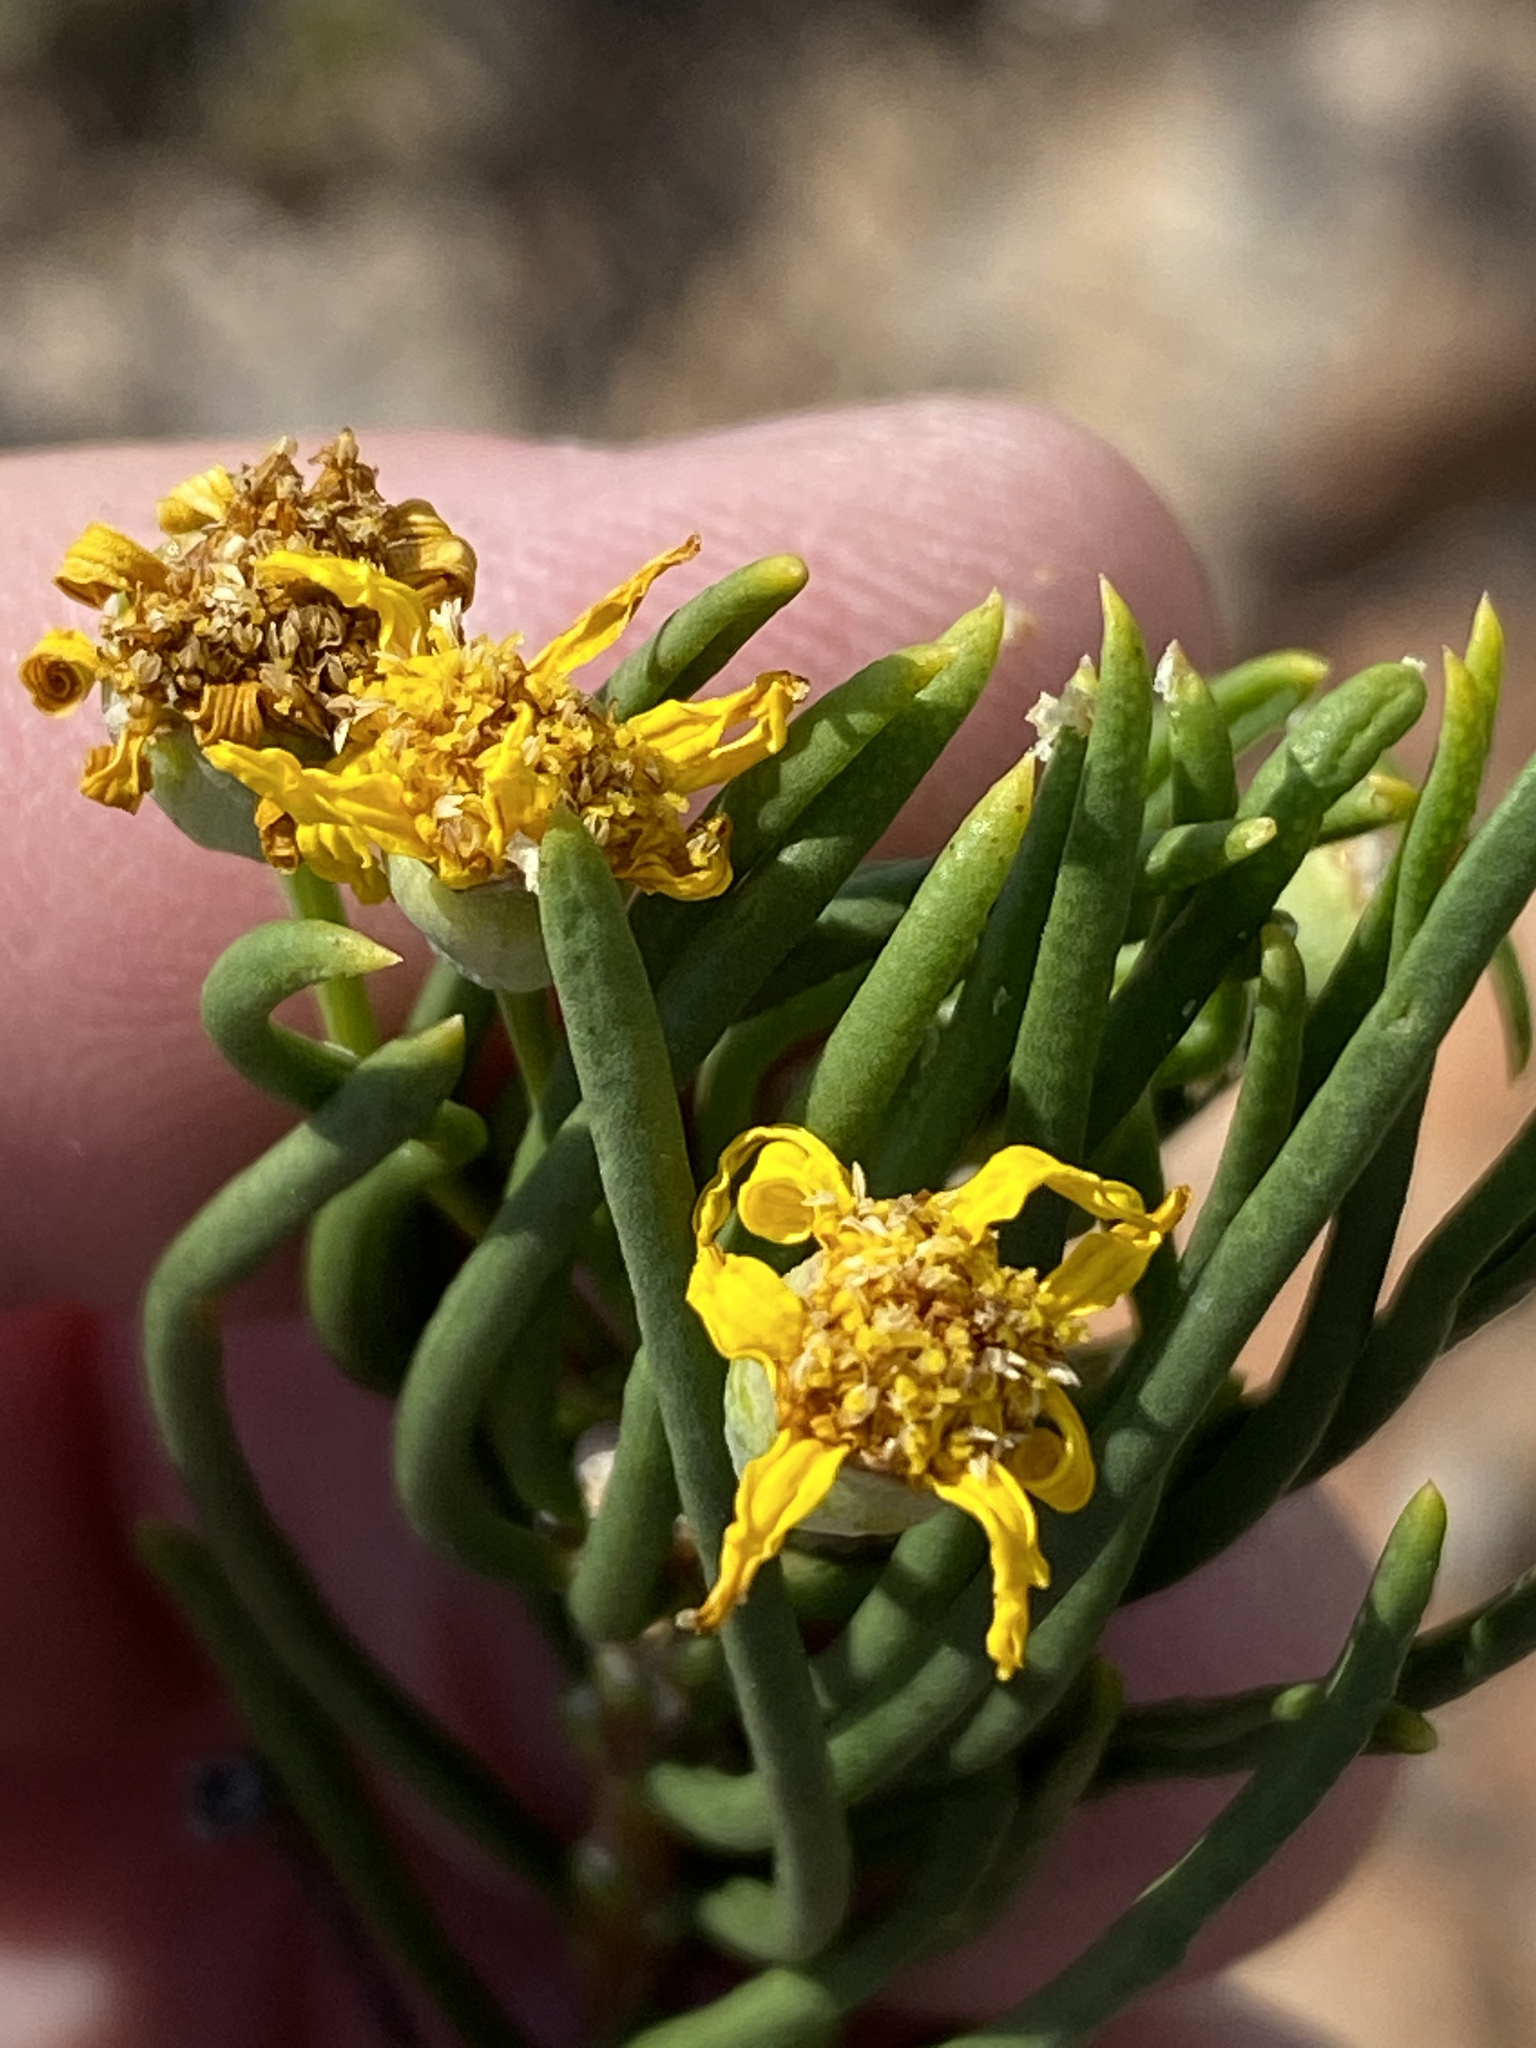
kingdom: Plantae
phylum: Tracheophyta
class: Magnoliopsida
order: Asterales
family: Asteraceae
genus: Euryops
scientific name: Euryops brevipapposus
